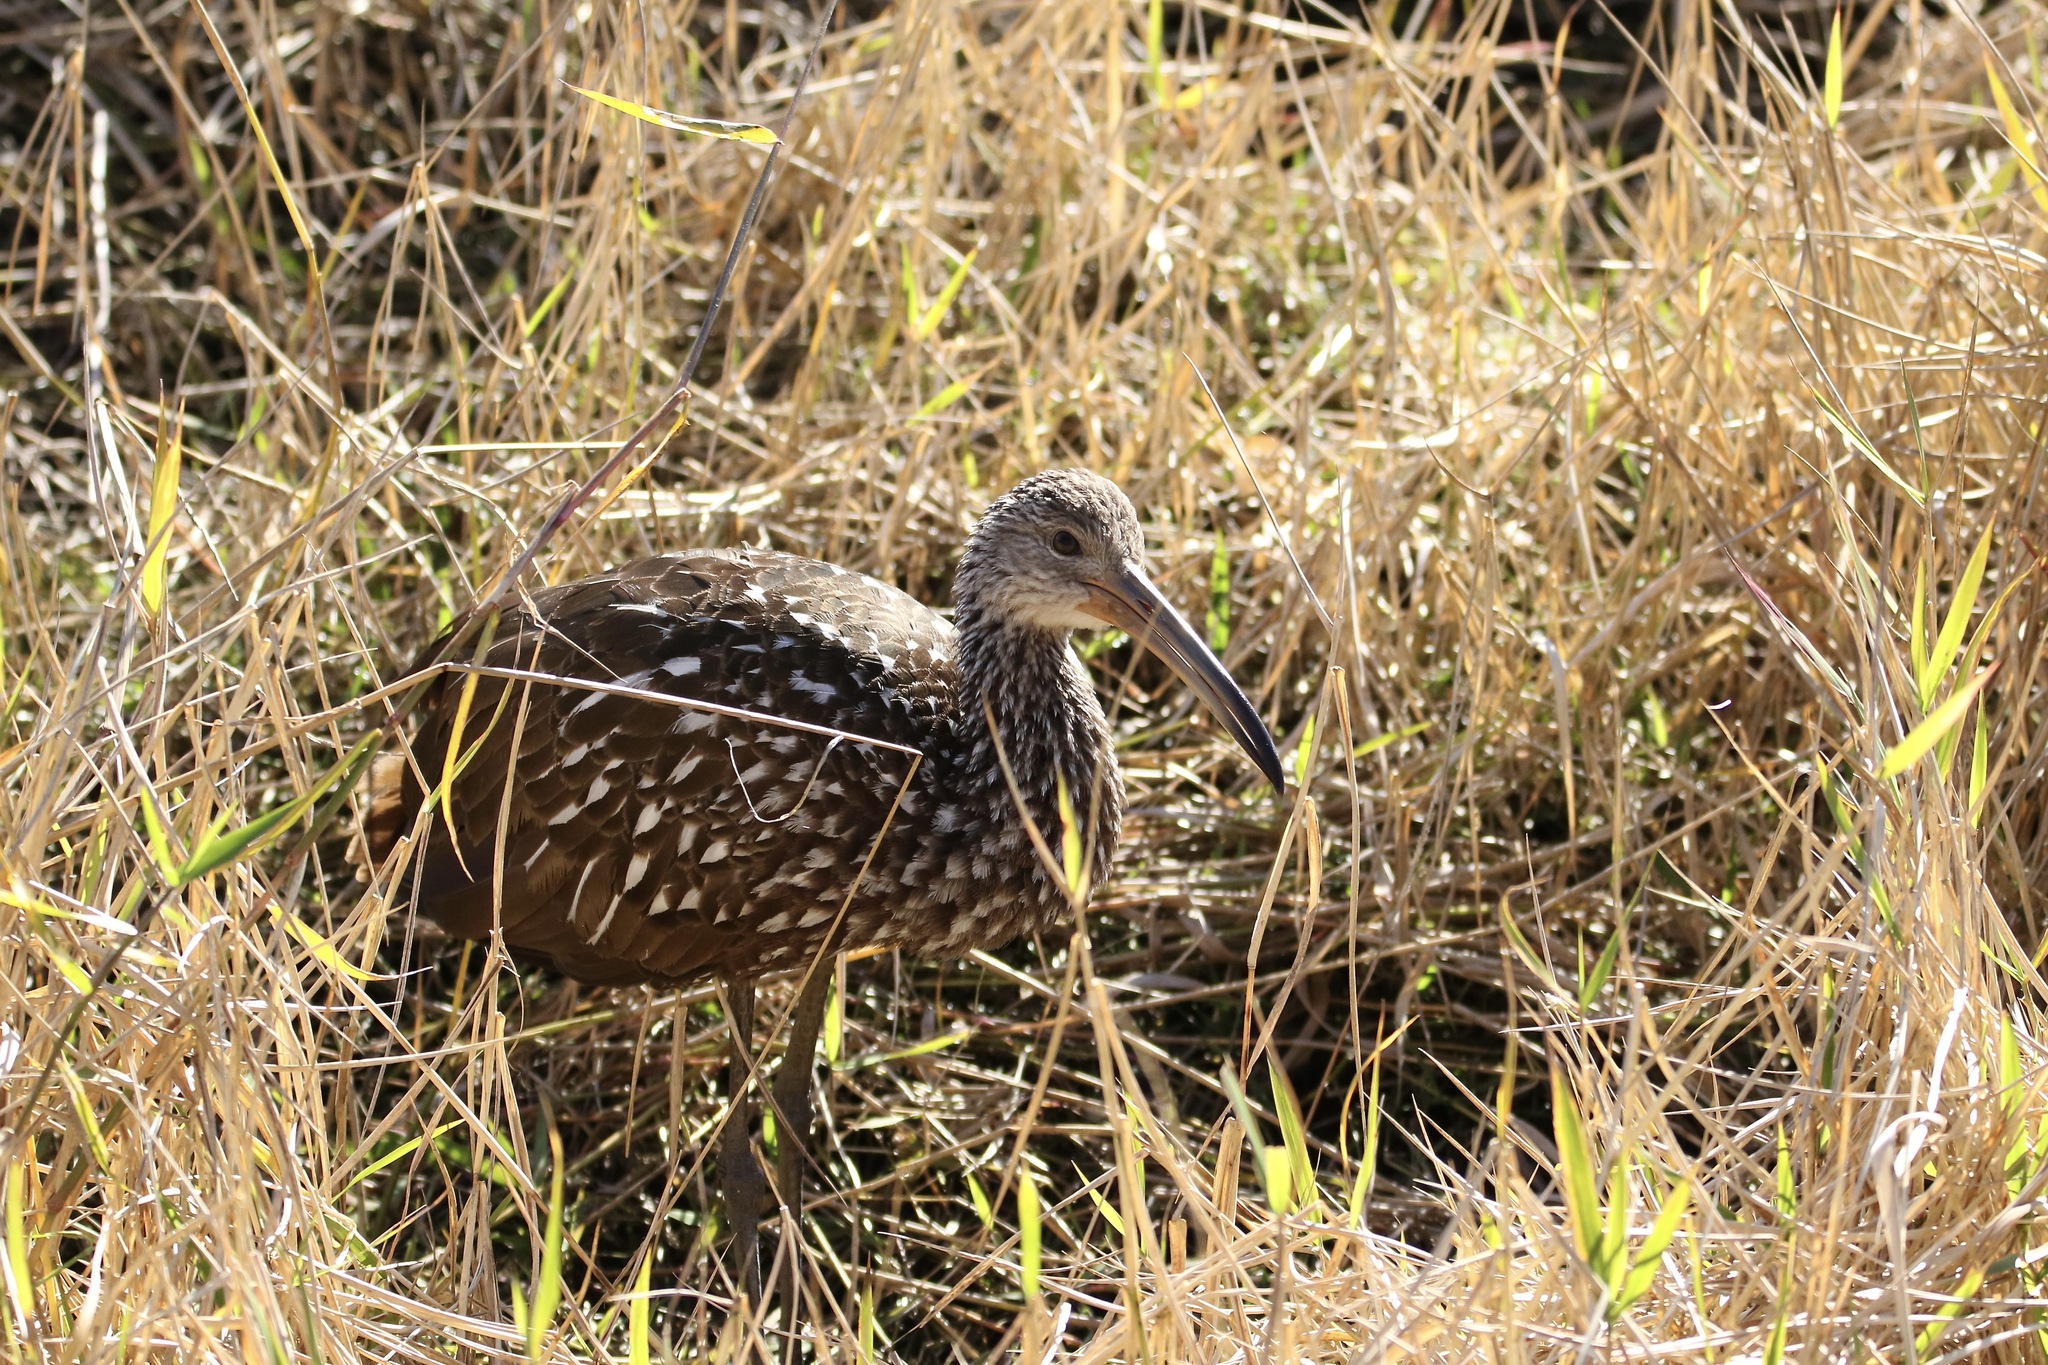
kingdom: Animalia
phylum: Chordata
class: Aves
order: Gruiformes
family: Aramidae
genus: Aramus
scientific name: Aramus guarauna
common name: Limpkin
